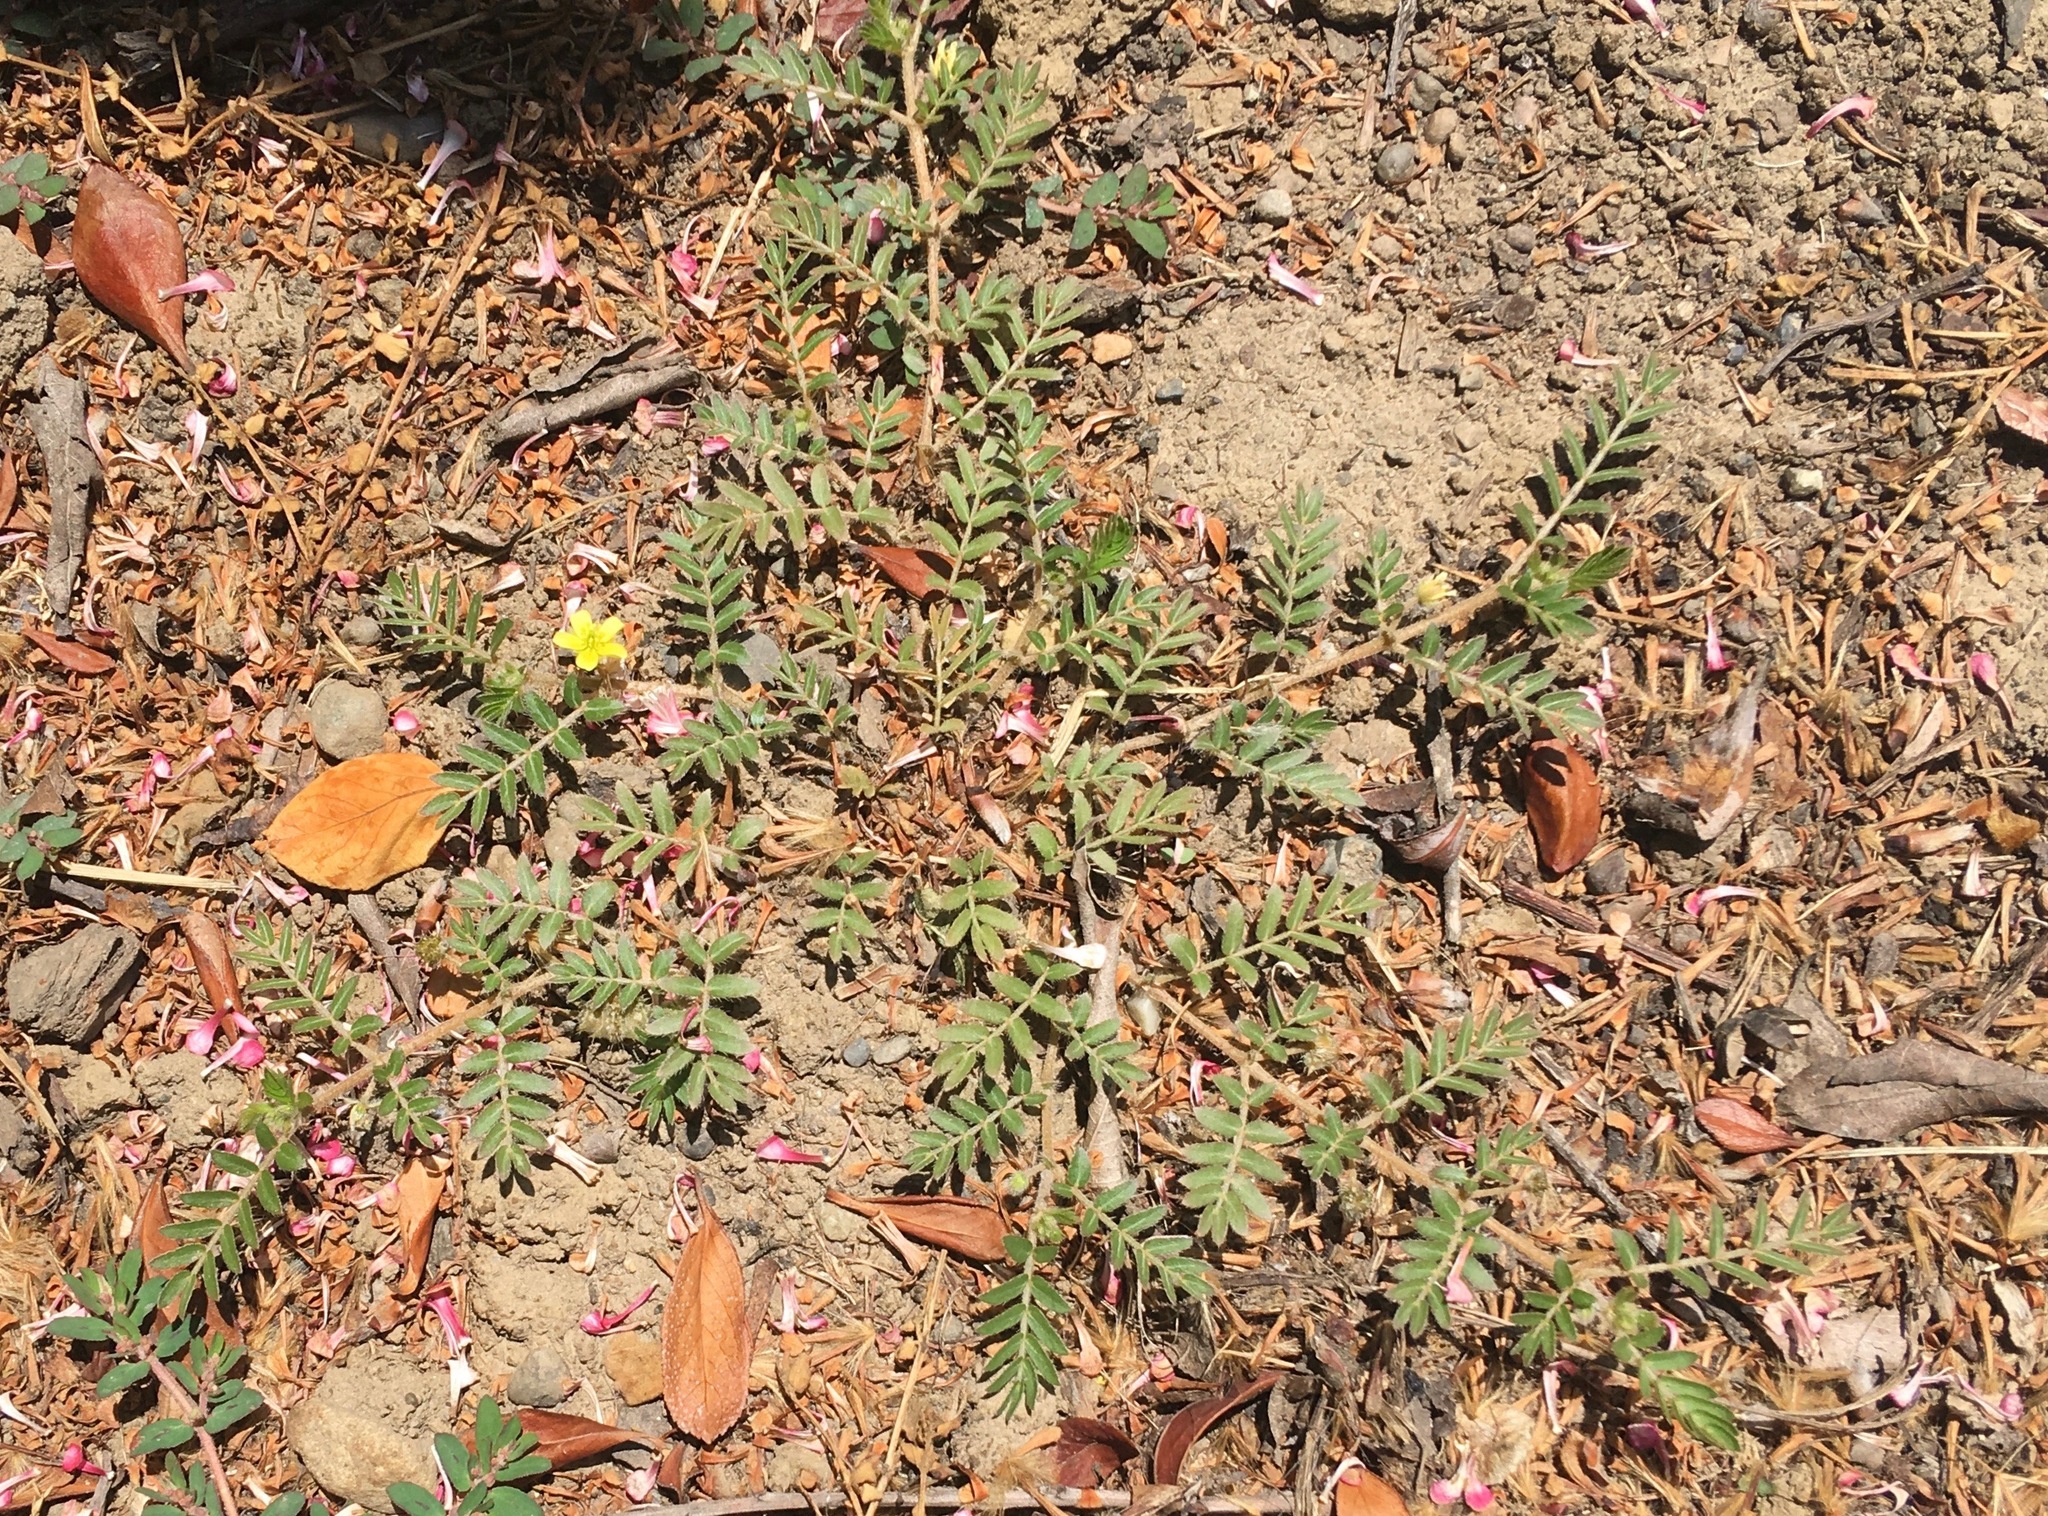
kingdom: Plantae
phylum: Tracheophyta
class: Magnoliopsida
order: Zygophyllales
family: Zygophyllaceae
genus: Tribulus
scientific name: Tribulus terrestris
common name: Puncturevine
